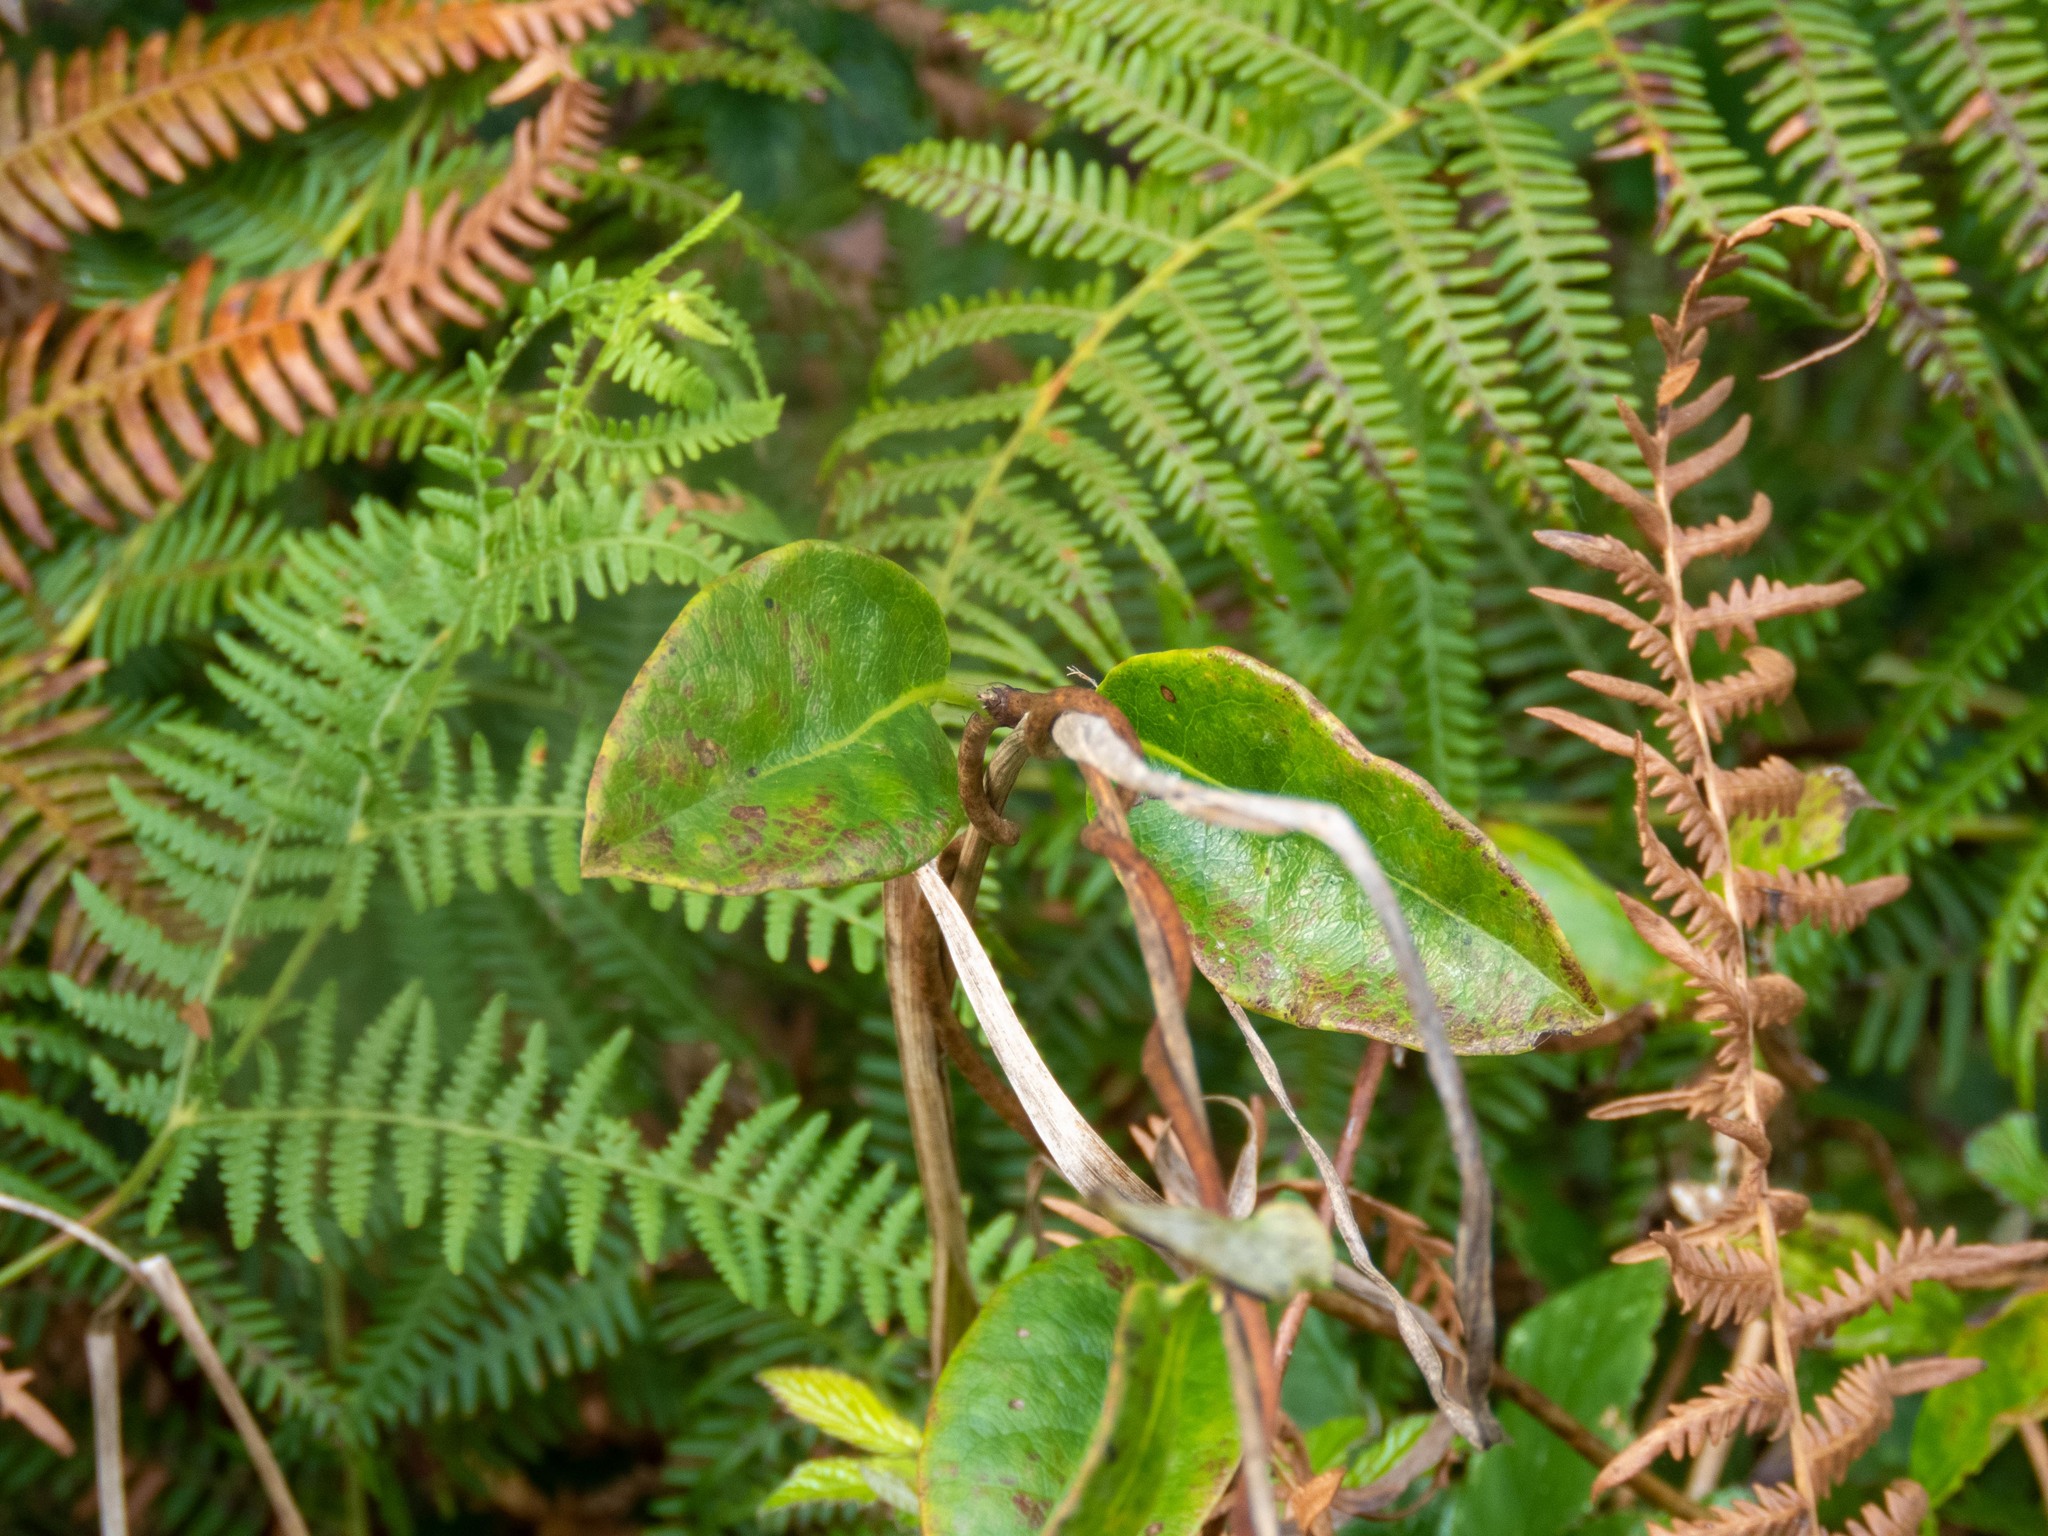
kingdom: Plantae
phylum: Tracheophyta
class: Magnoliopsida
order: Dipsacales
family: Caprifoliaceae
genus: Lonicera
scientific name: Lonicera periclymenum
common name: European honeysuckle
